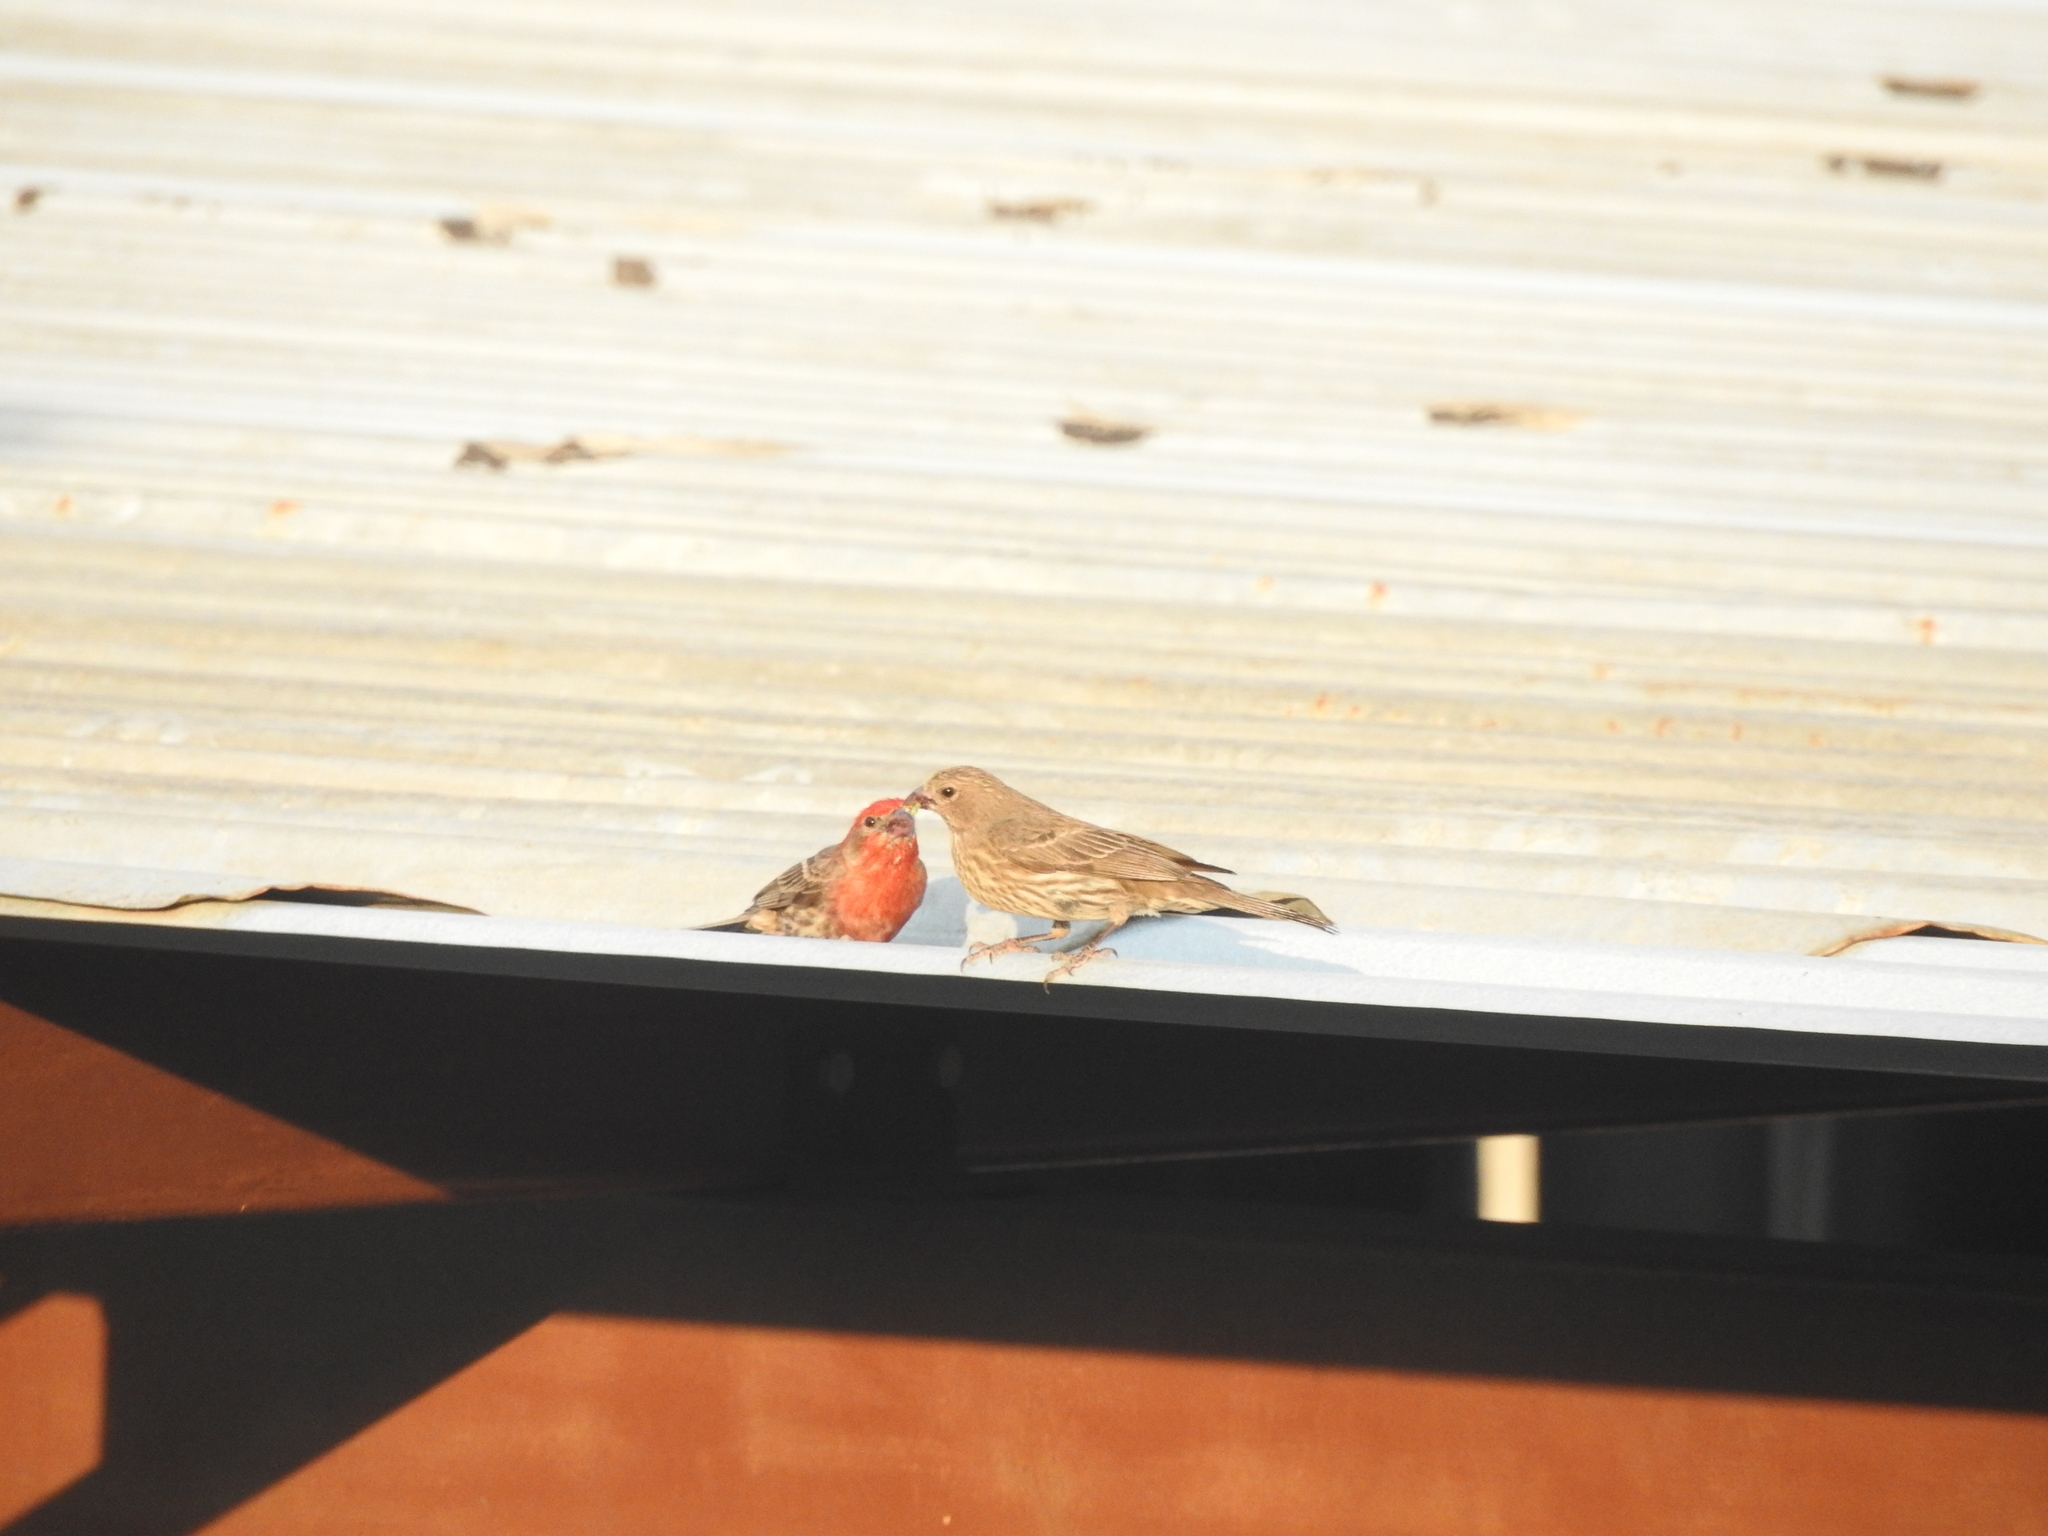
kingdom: Animalia
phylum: Chordata
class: Aves
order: Passeriformes
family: Fringillidae
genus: Haemorhous
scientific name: Haemorhous mexicanus
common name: House finch
